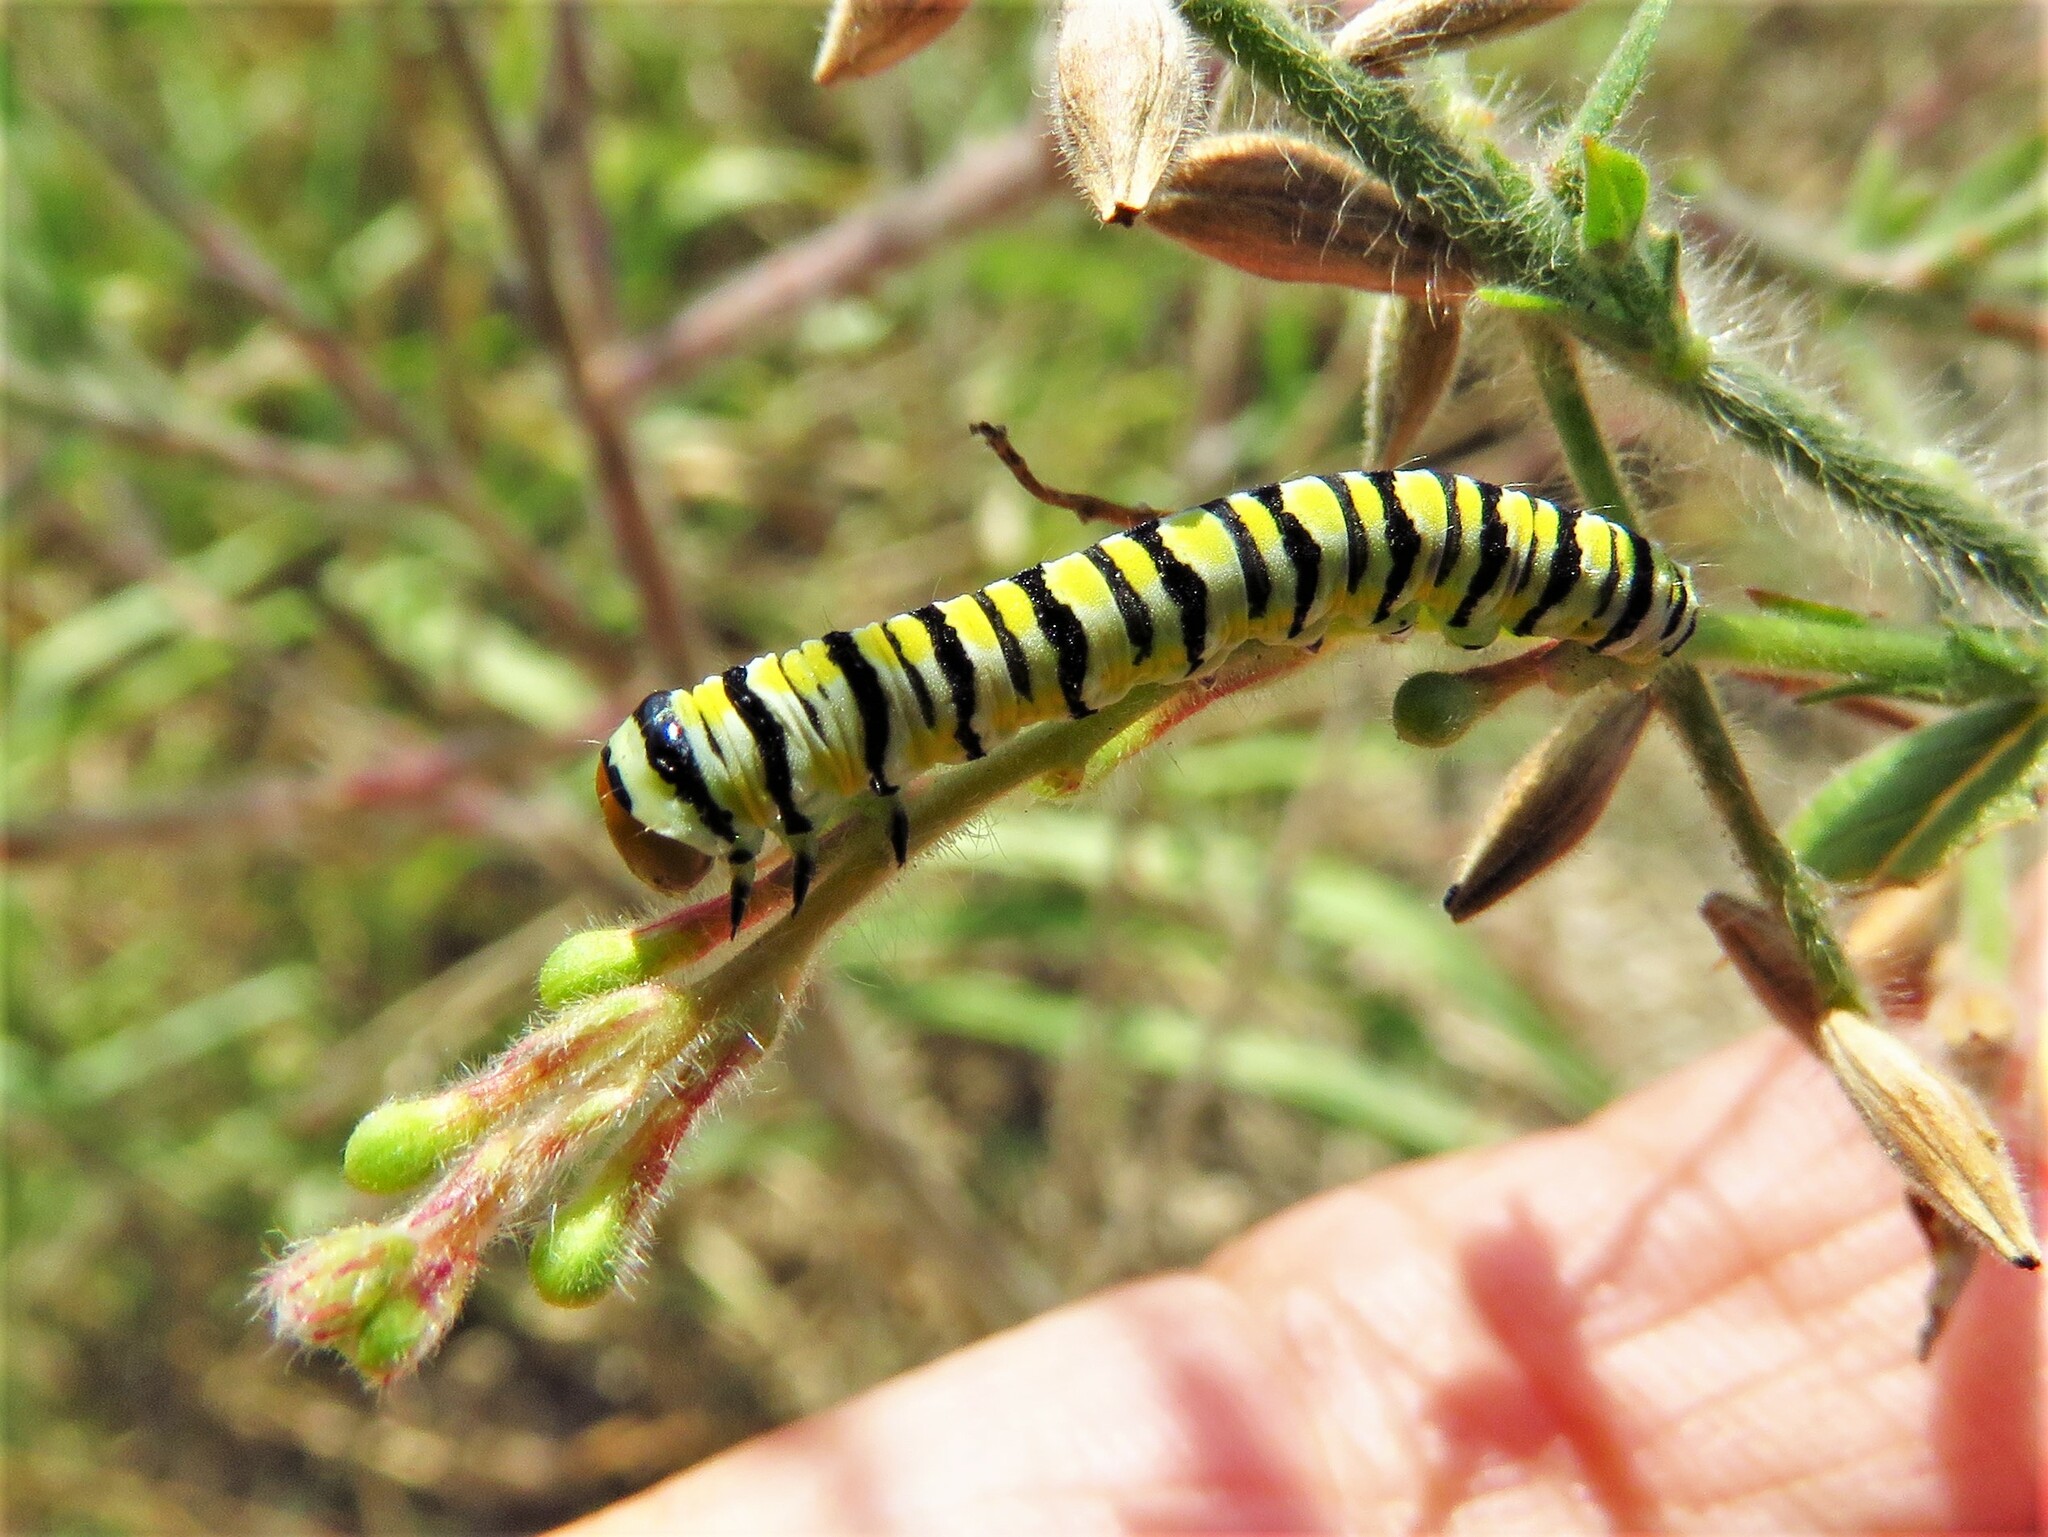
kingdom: Animalia
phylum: Arthropoda
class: Insecta
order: Lepidoptera
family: Noctuidae
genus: Schinia
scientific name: Schinia gaurae
